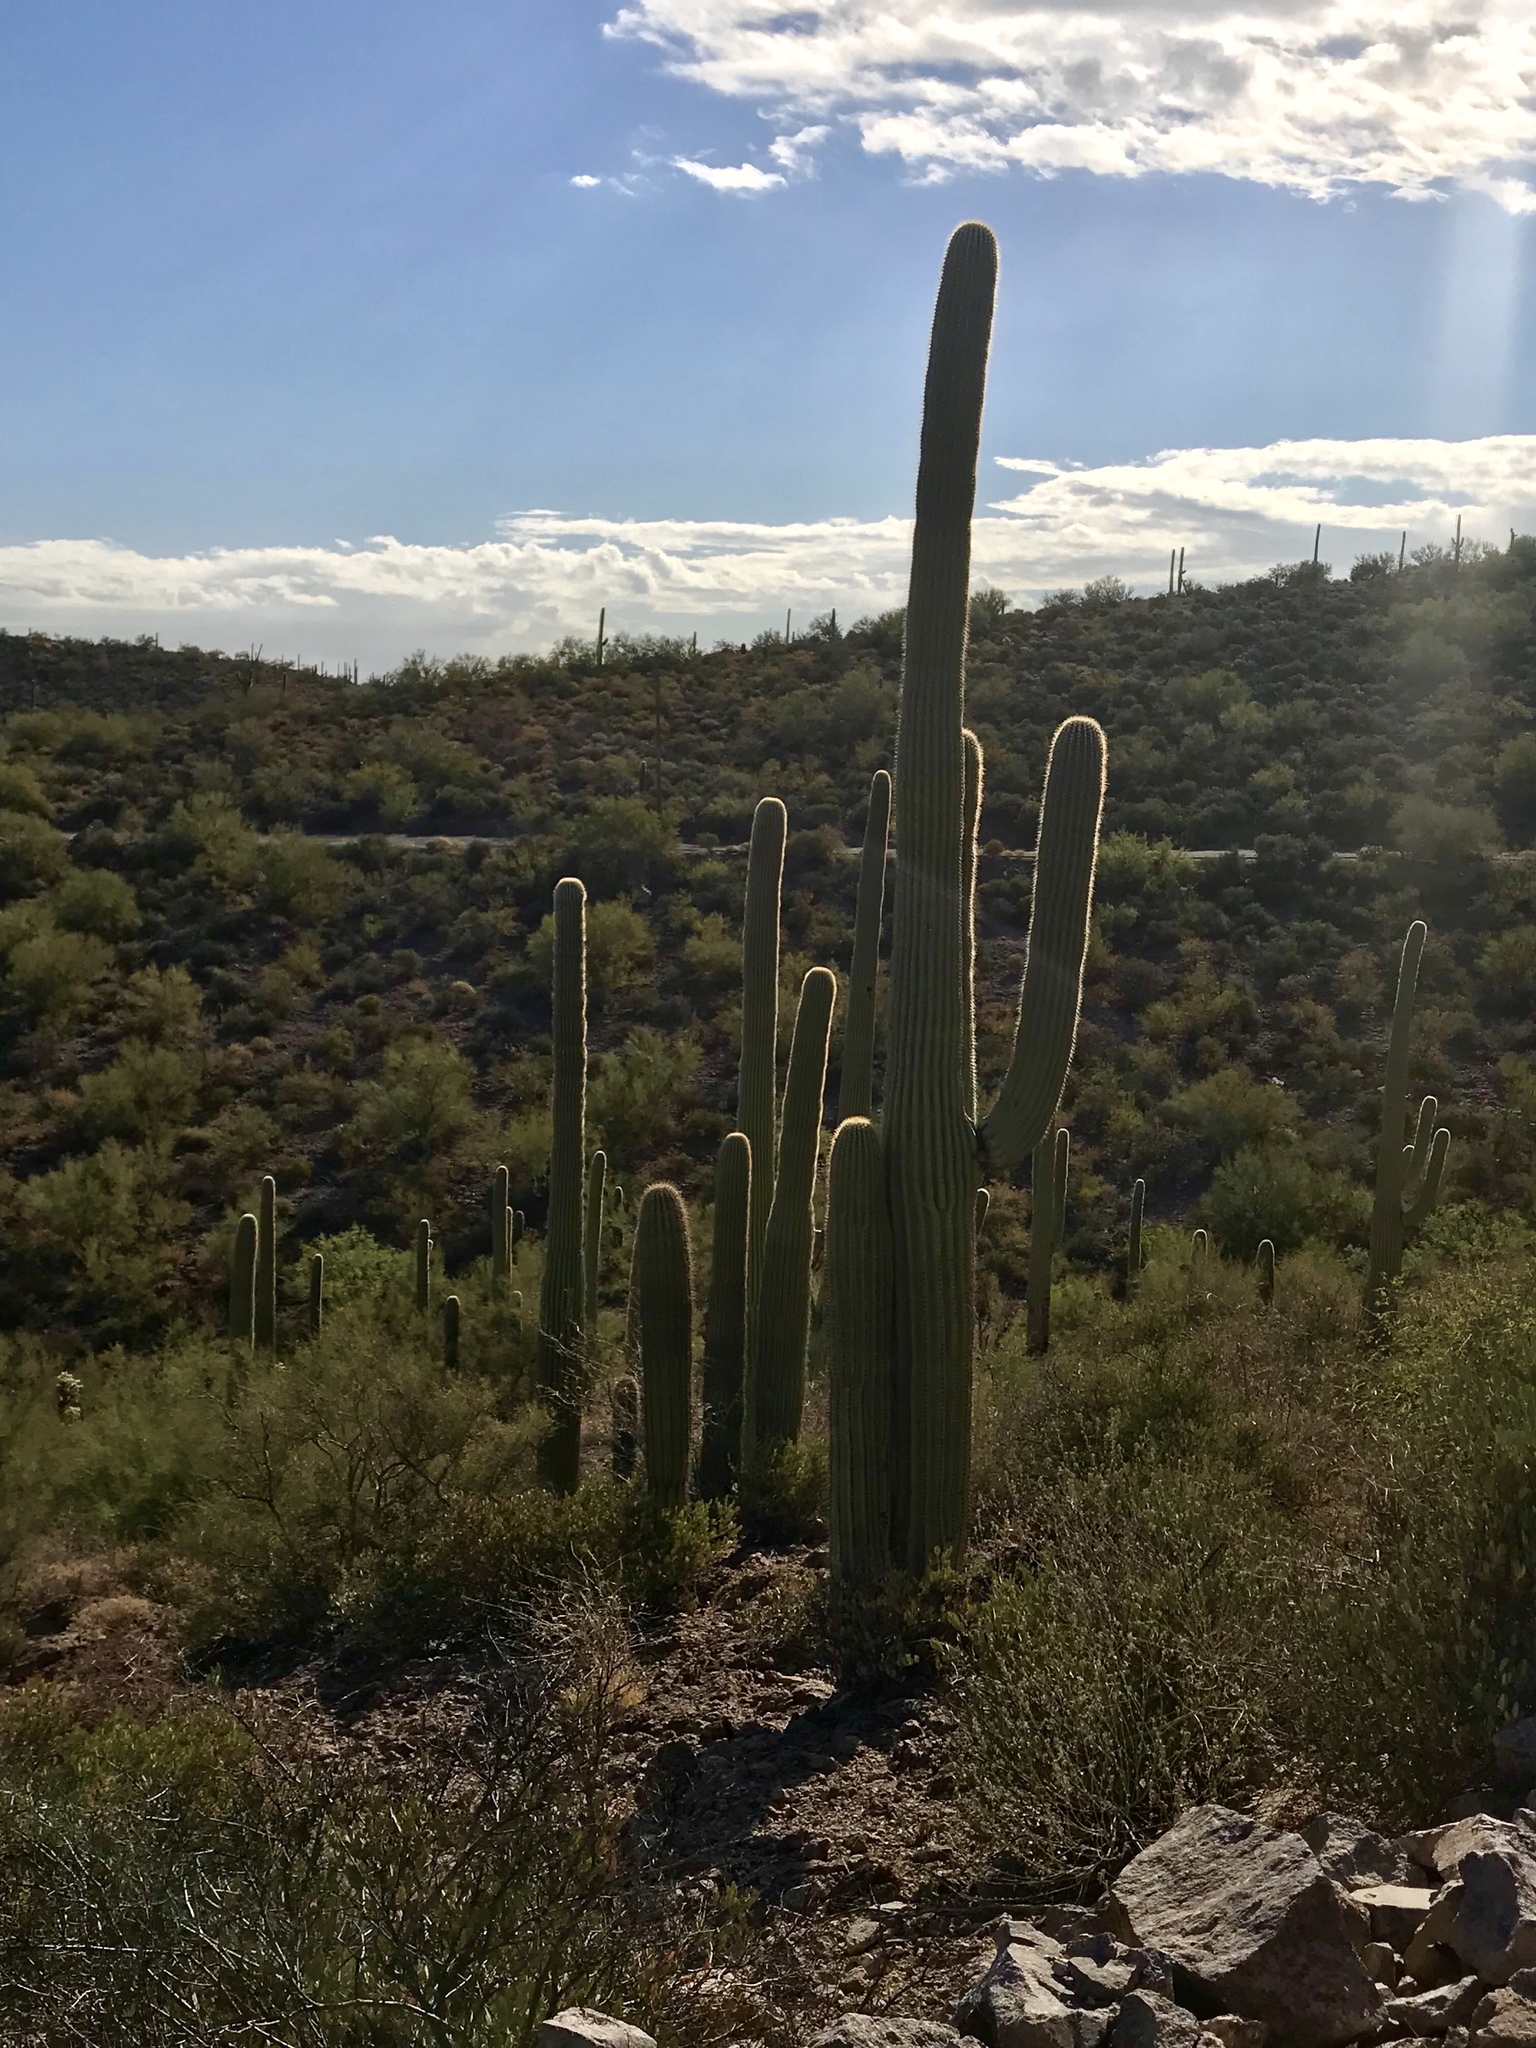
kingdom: Plantae
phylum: Tracheophyta
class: Magnoliopsida
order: Caryophyllales
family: Cactaceae
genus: Carnegiea
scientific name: Carnegiea gigantea
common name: Saguaro
